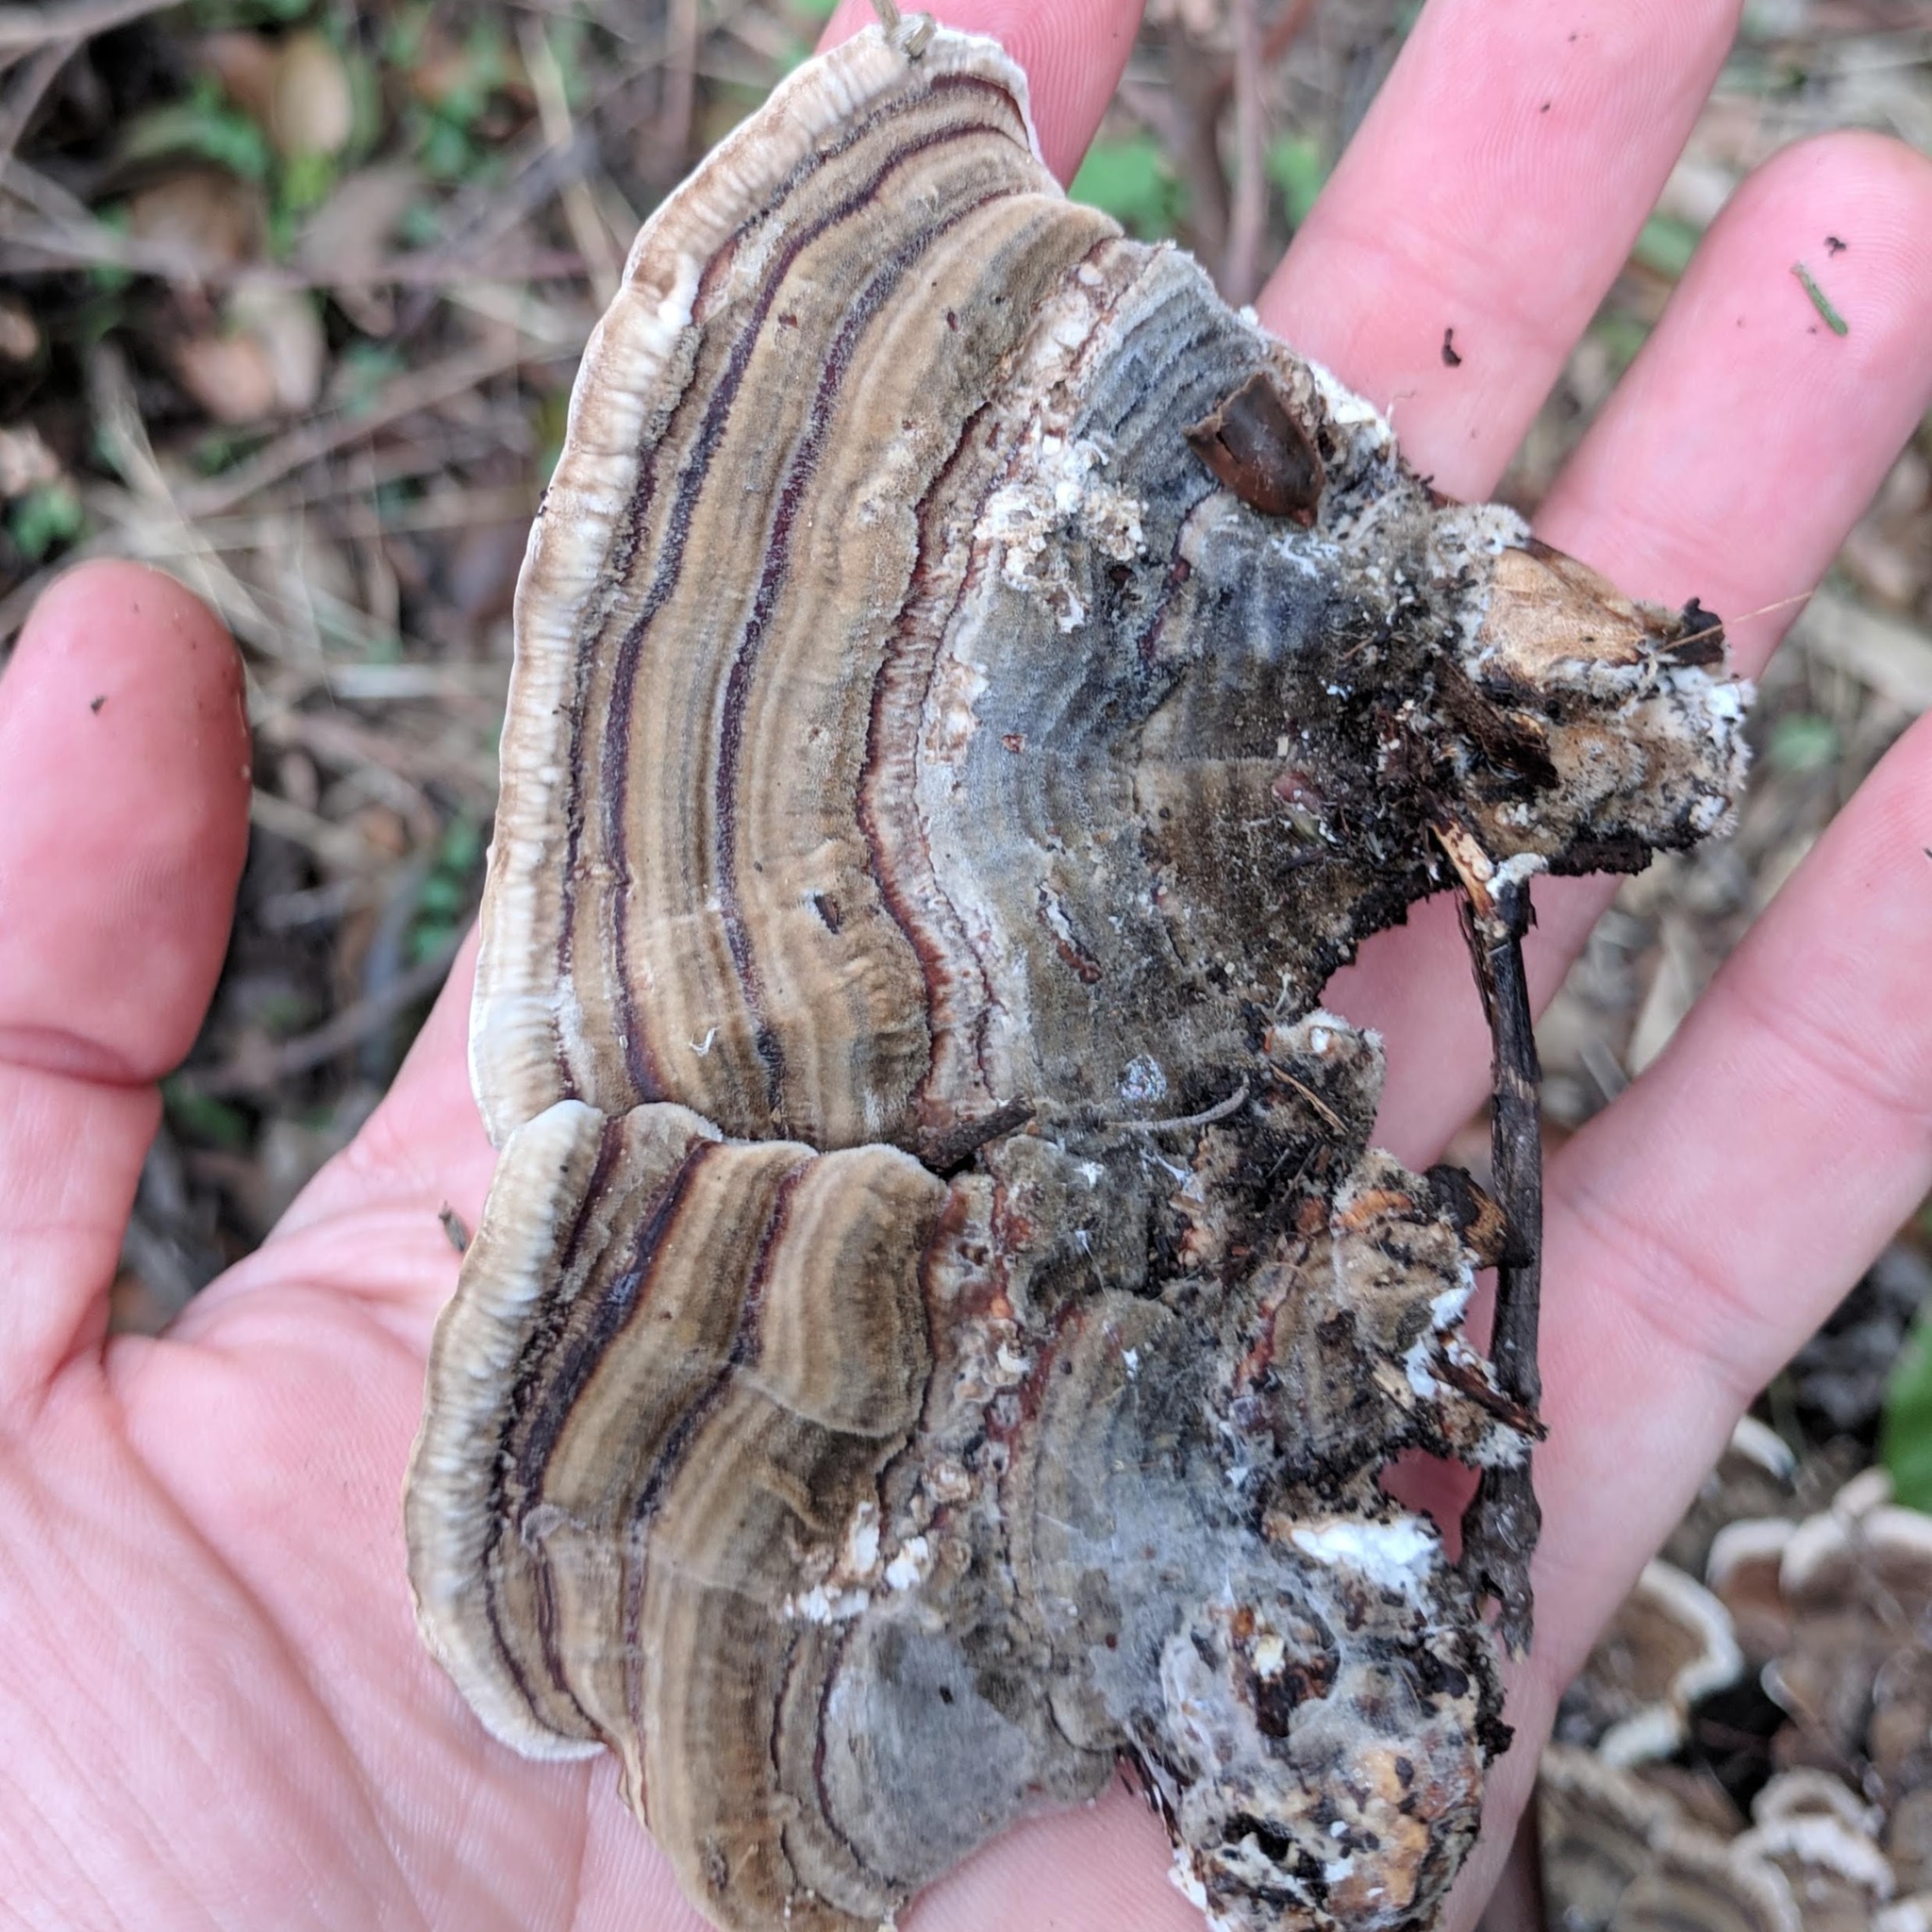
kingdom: Fungi
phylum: Basidiomycota
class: Agaricomycetes
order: Polyporales
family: Polyporaceae
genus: Trametes
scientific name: Trametes versicolor
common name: Turkeytail
